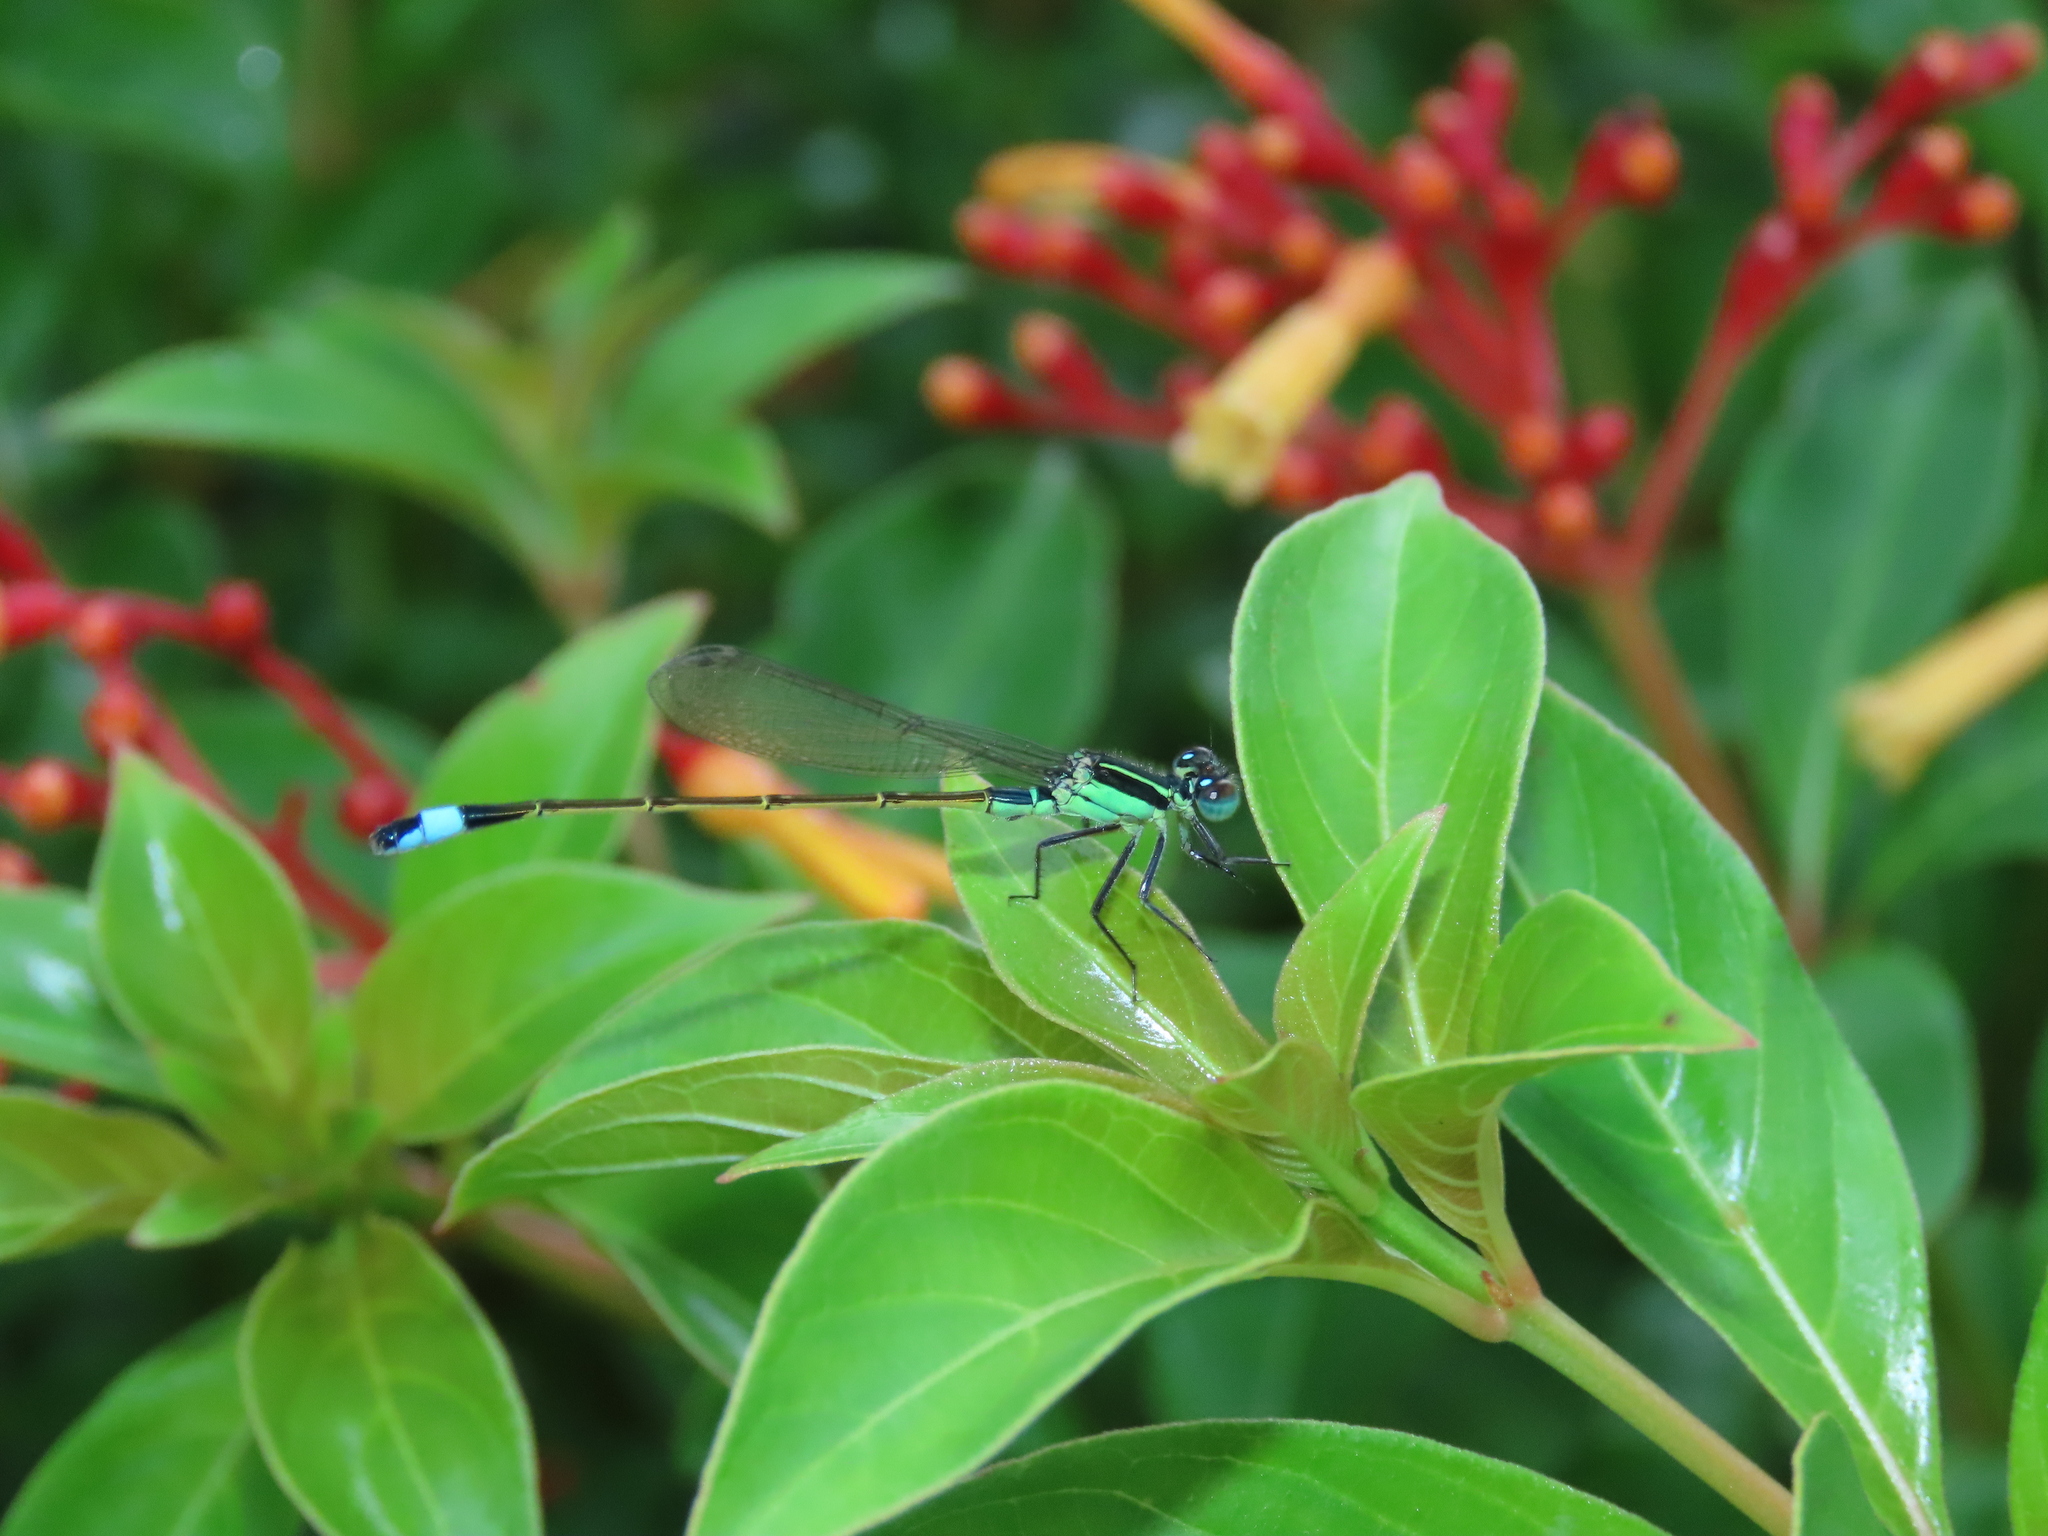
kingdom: Animalia
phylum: Arthropoda
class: Insecta
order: Odonata
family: Coenagrionidae
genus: Ischnura
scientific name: Ischnura ramburii
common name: Rambur's forktail
